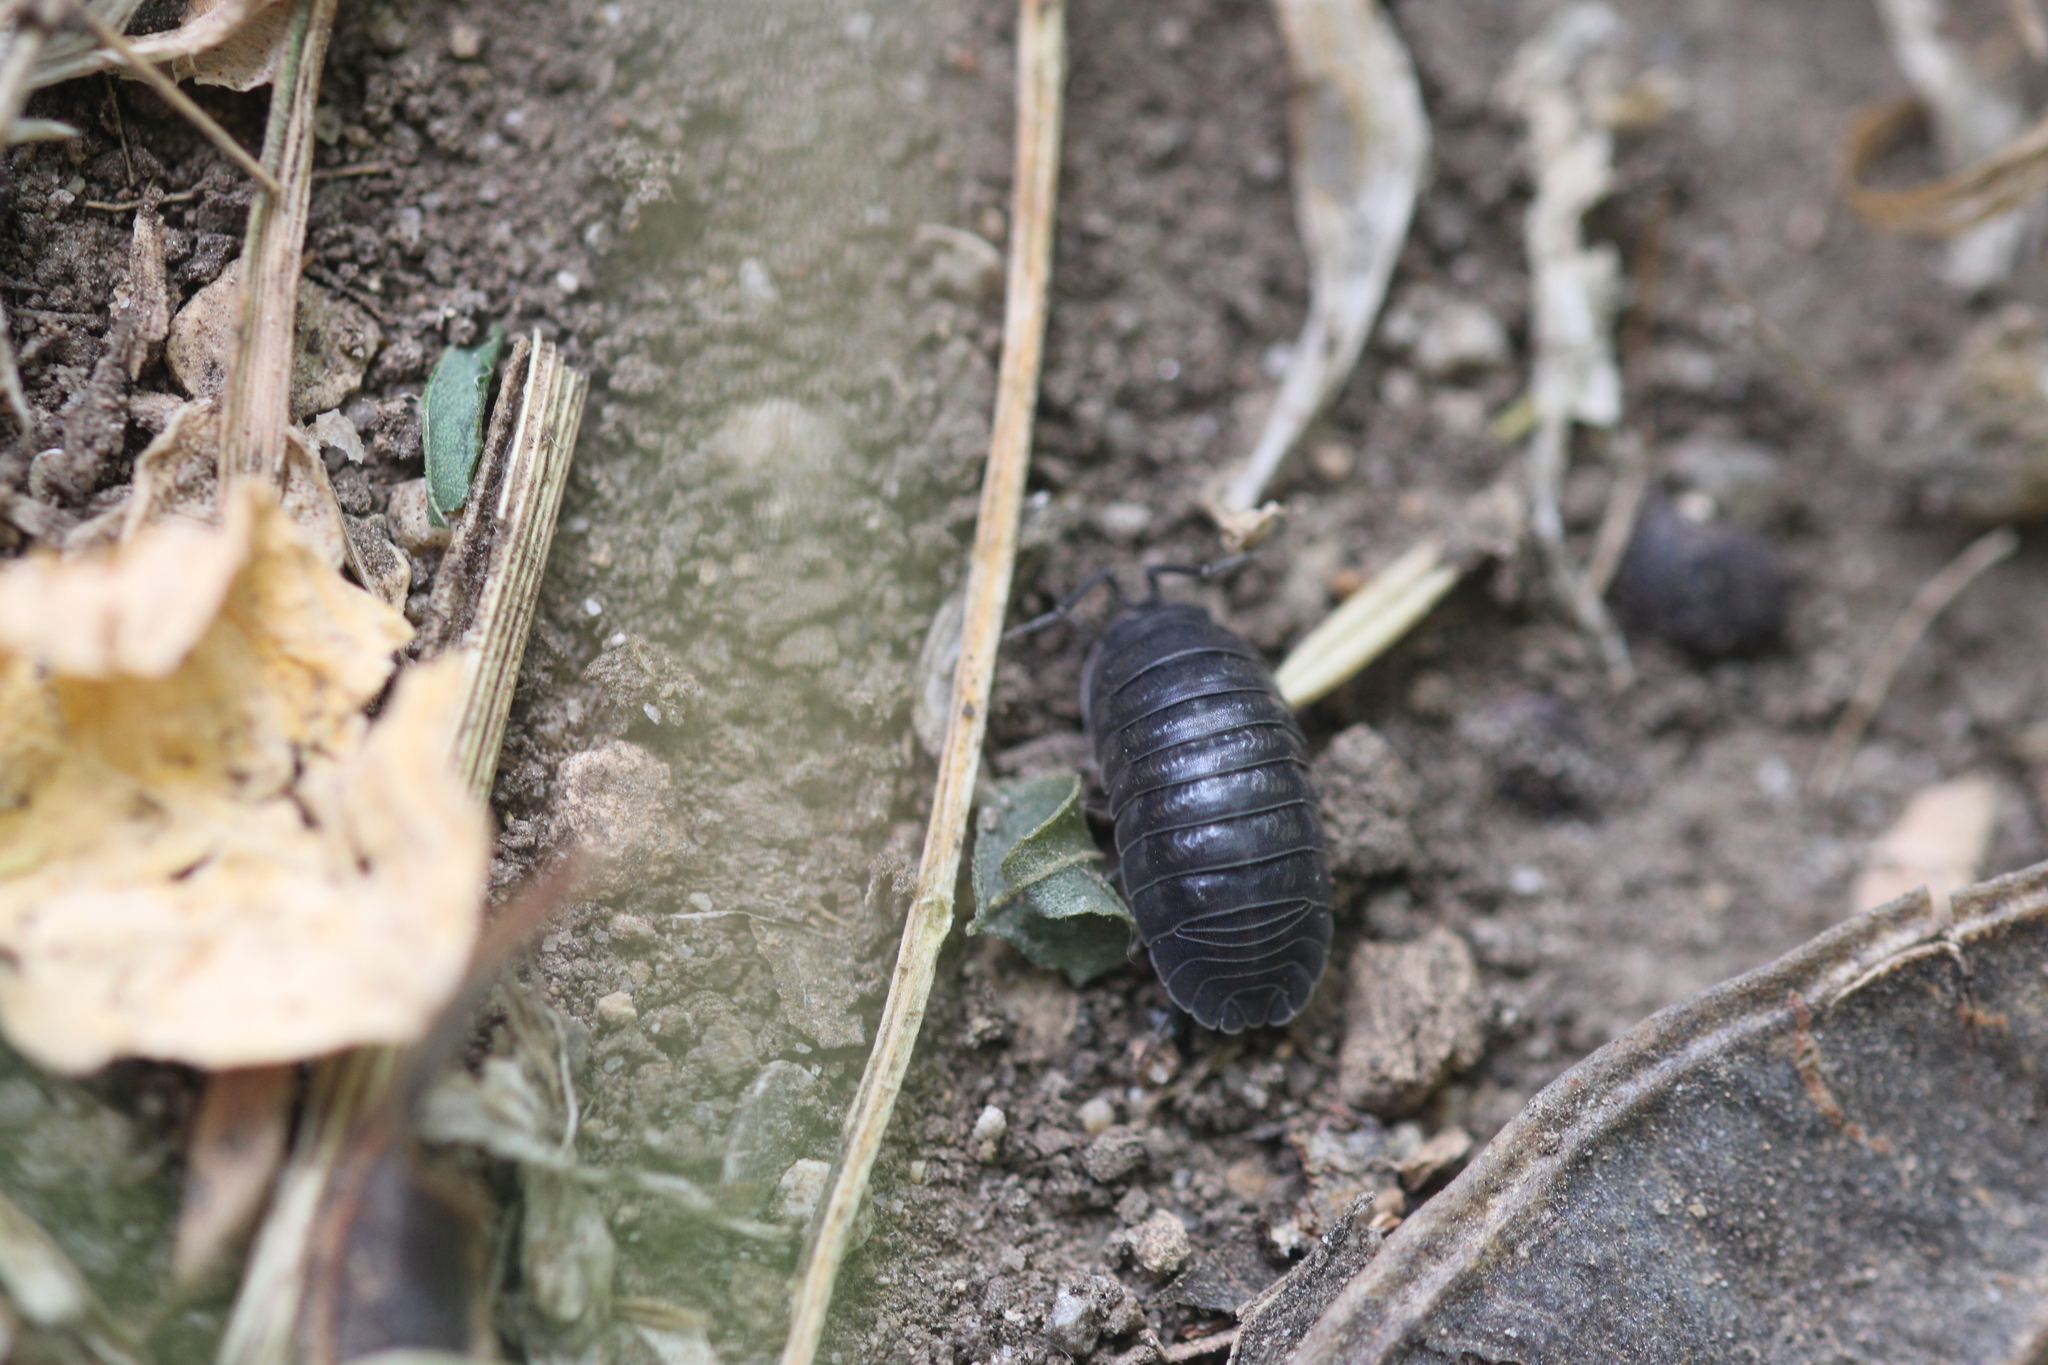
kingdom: Animalia
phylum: Arthropoda
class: Malacostraca
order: Isopoda
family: Armadillidiidae
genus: Armadillidium
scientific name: Armadillidium nasatum
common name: Isopod
